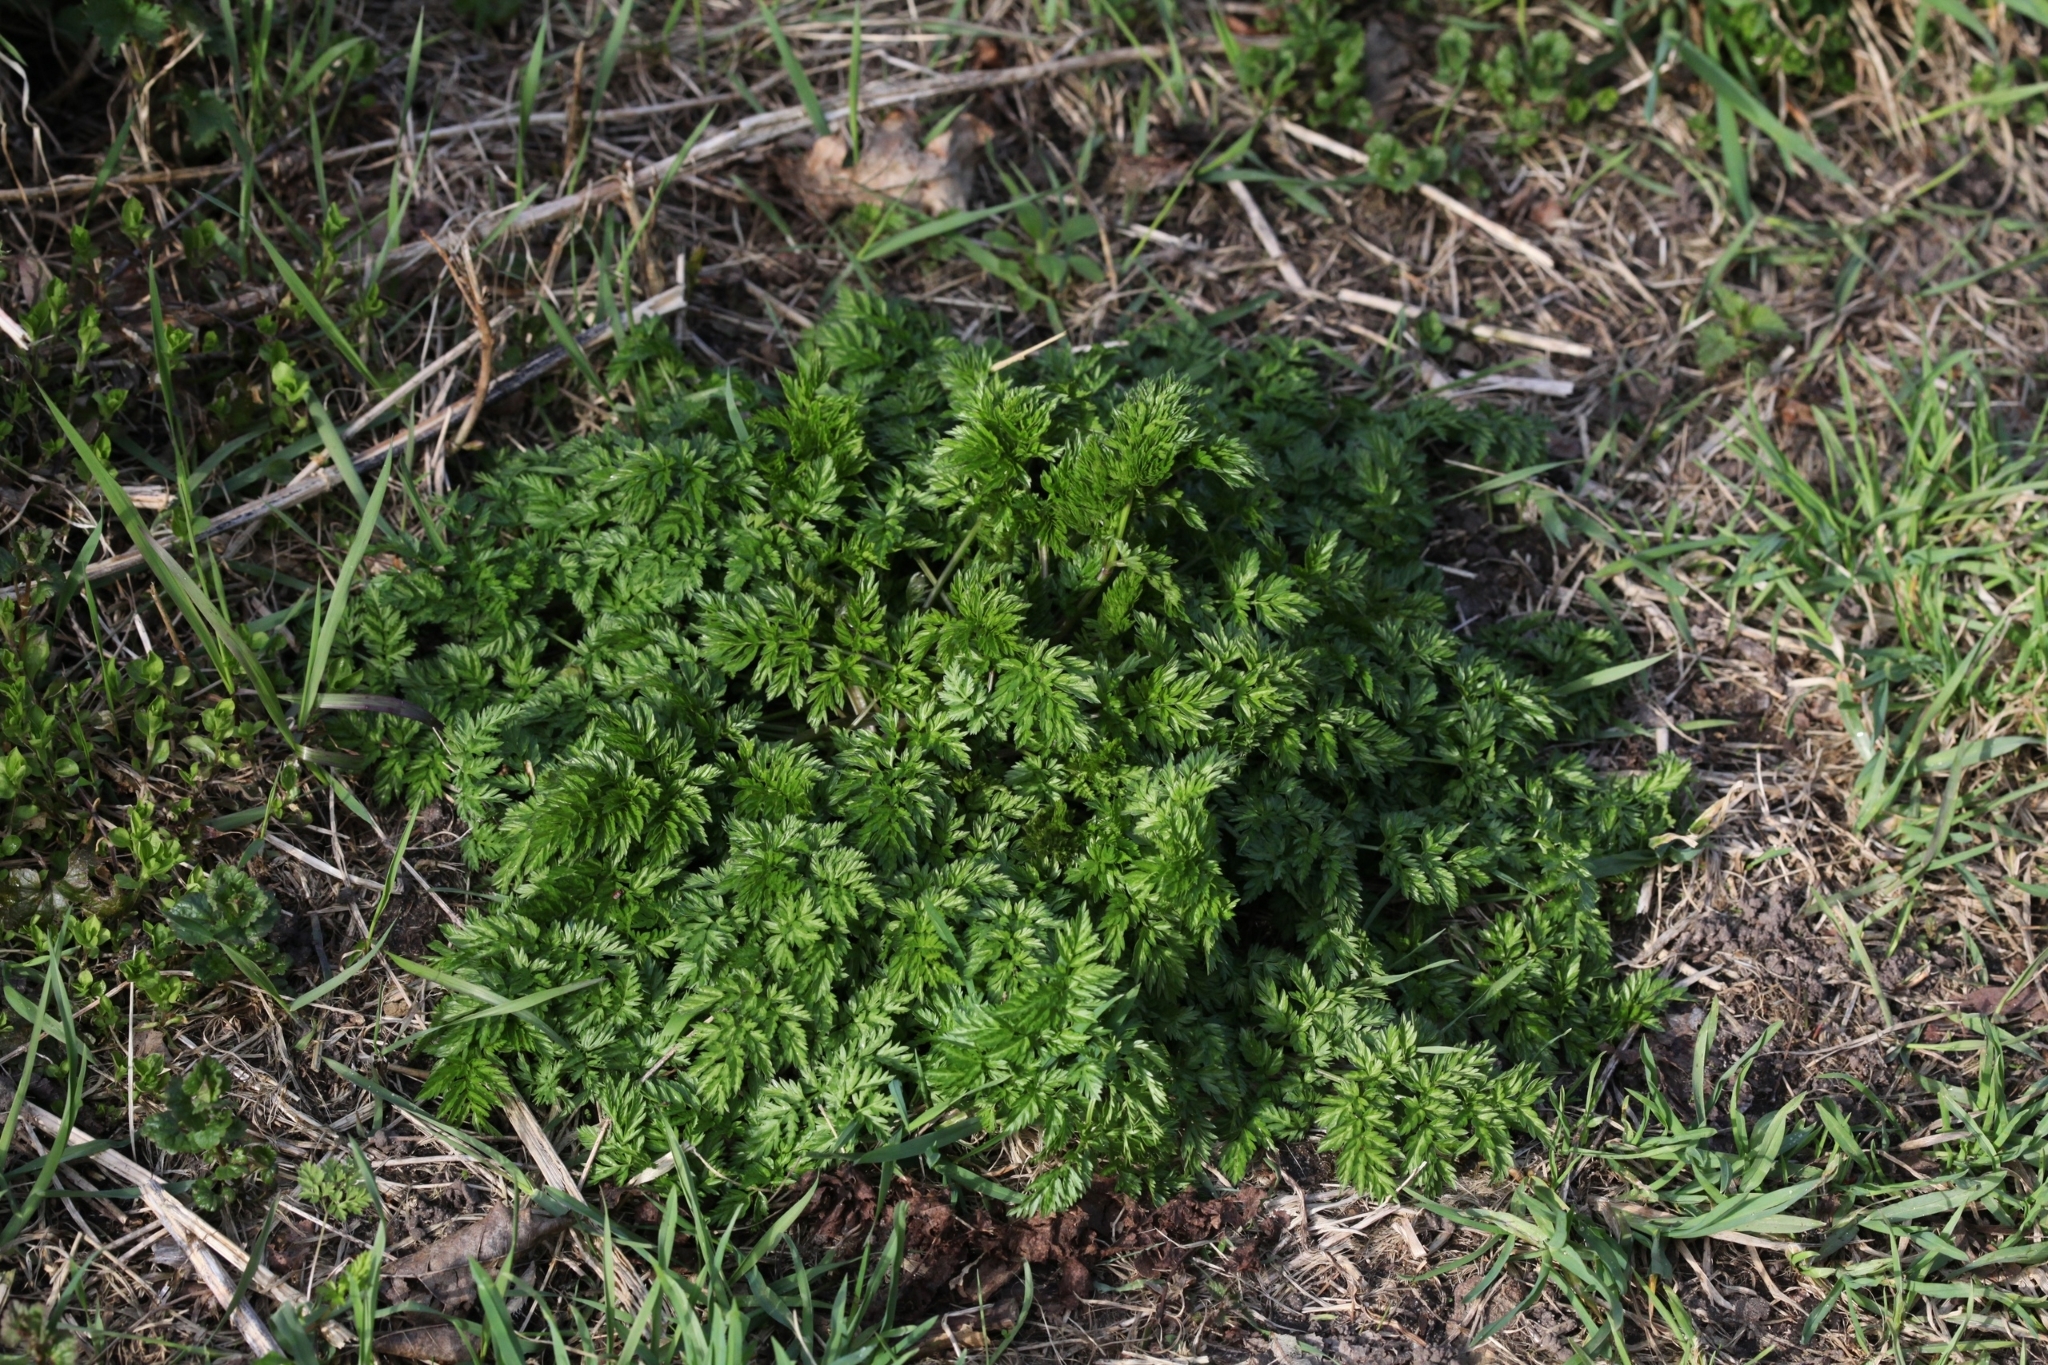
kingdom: Plantae
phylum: Tracheophyta
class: Magnoliopsida
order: Apiales
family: Apiaceae
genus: Anthriscus
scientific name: Anthriscus sylvestris
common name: Cow parsley
